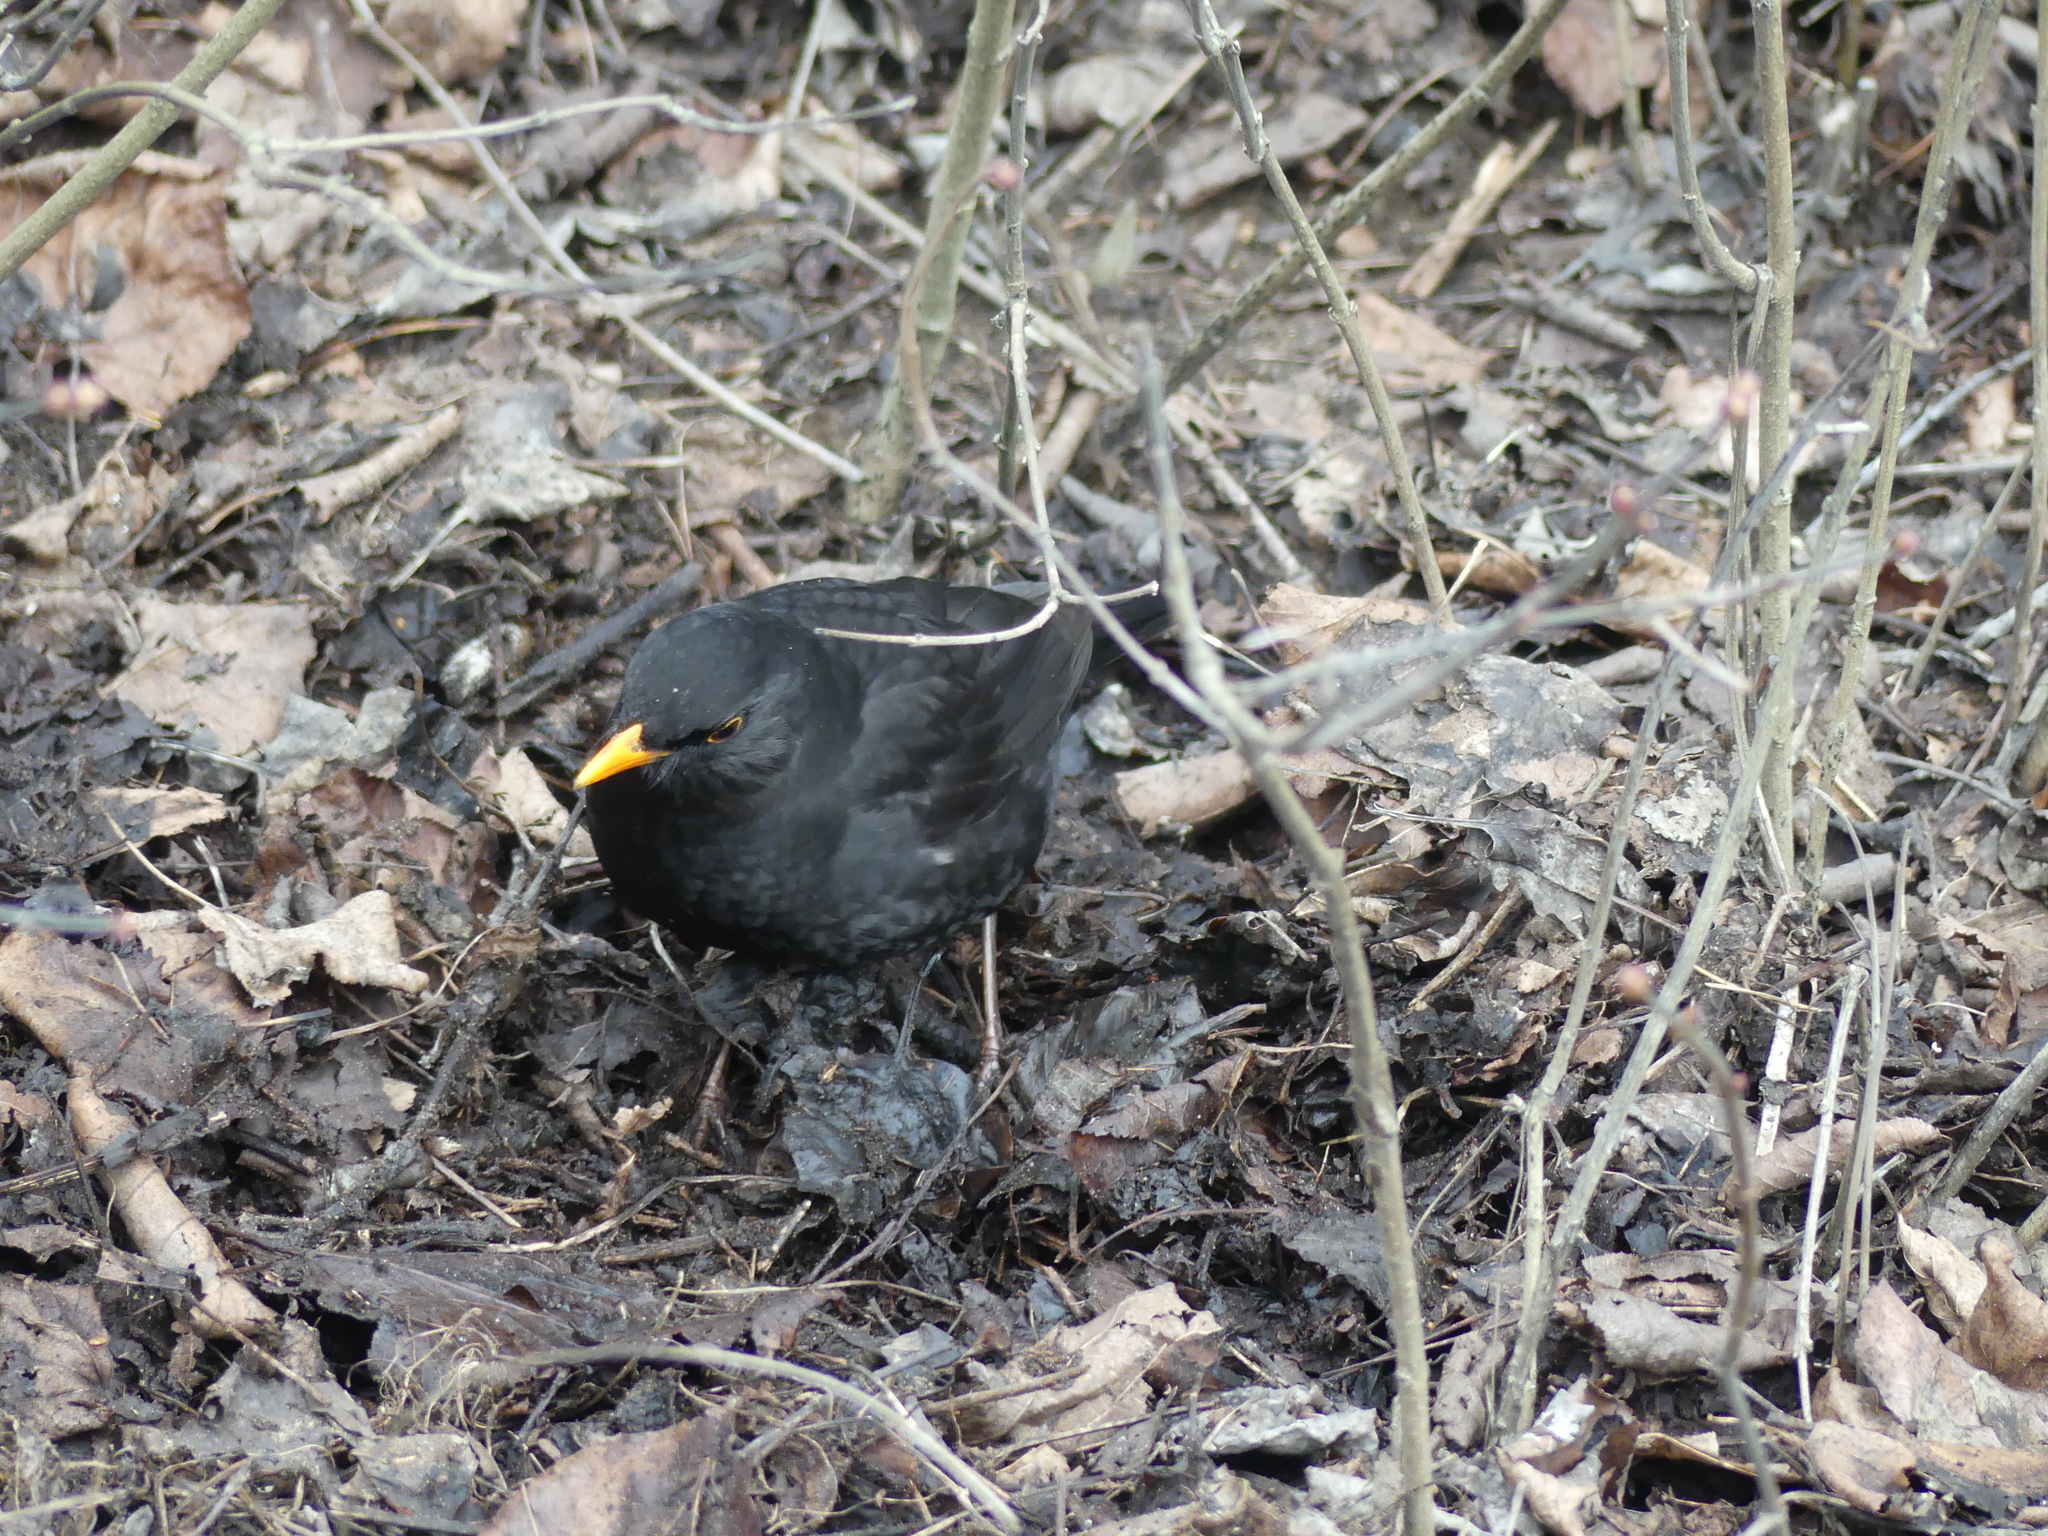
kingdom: Animalia
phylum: Chordata
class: Aves
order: Passeriformes
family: Turdidae
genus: Turdus
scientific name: Turdus merula
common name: Common blackbird
